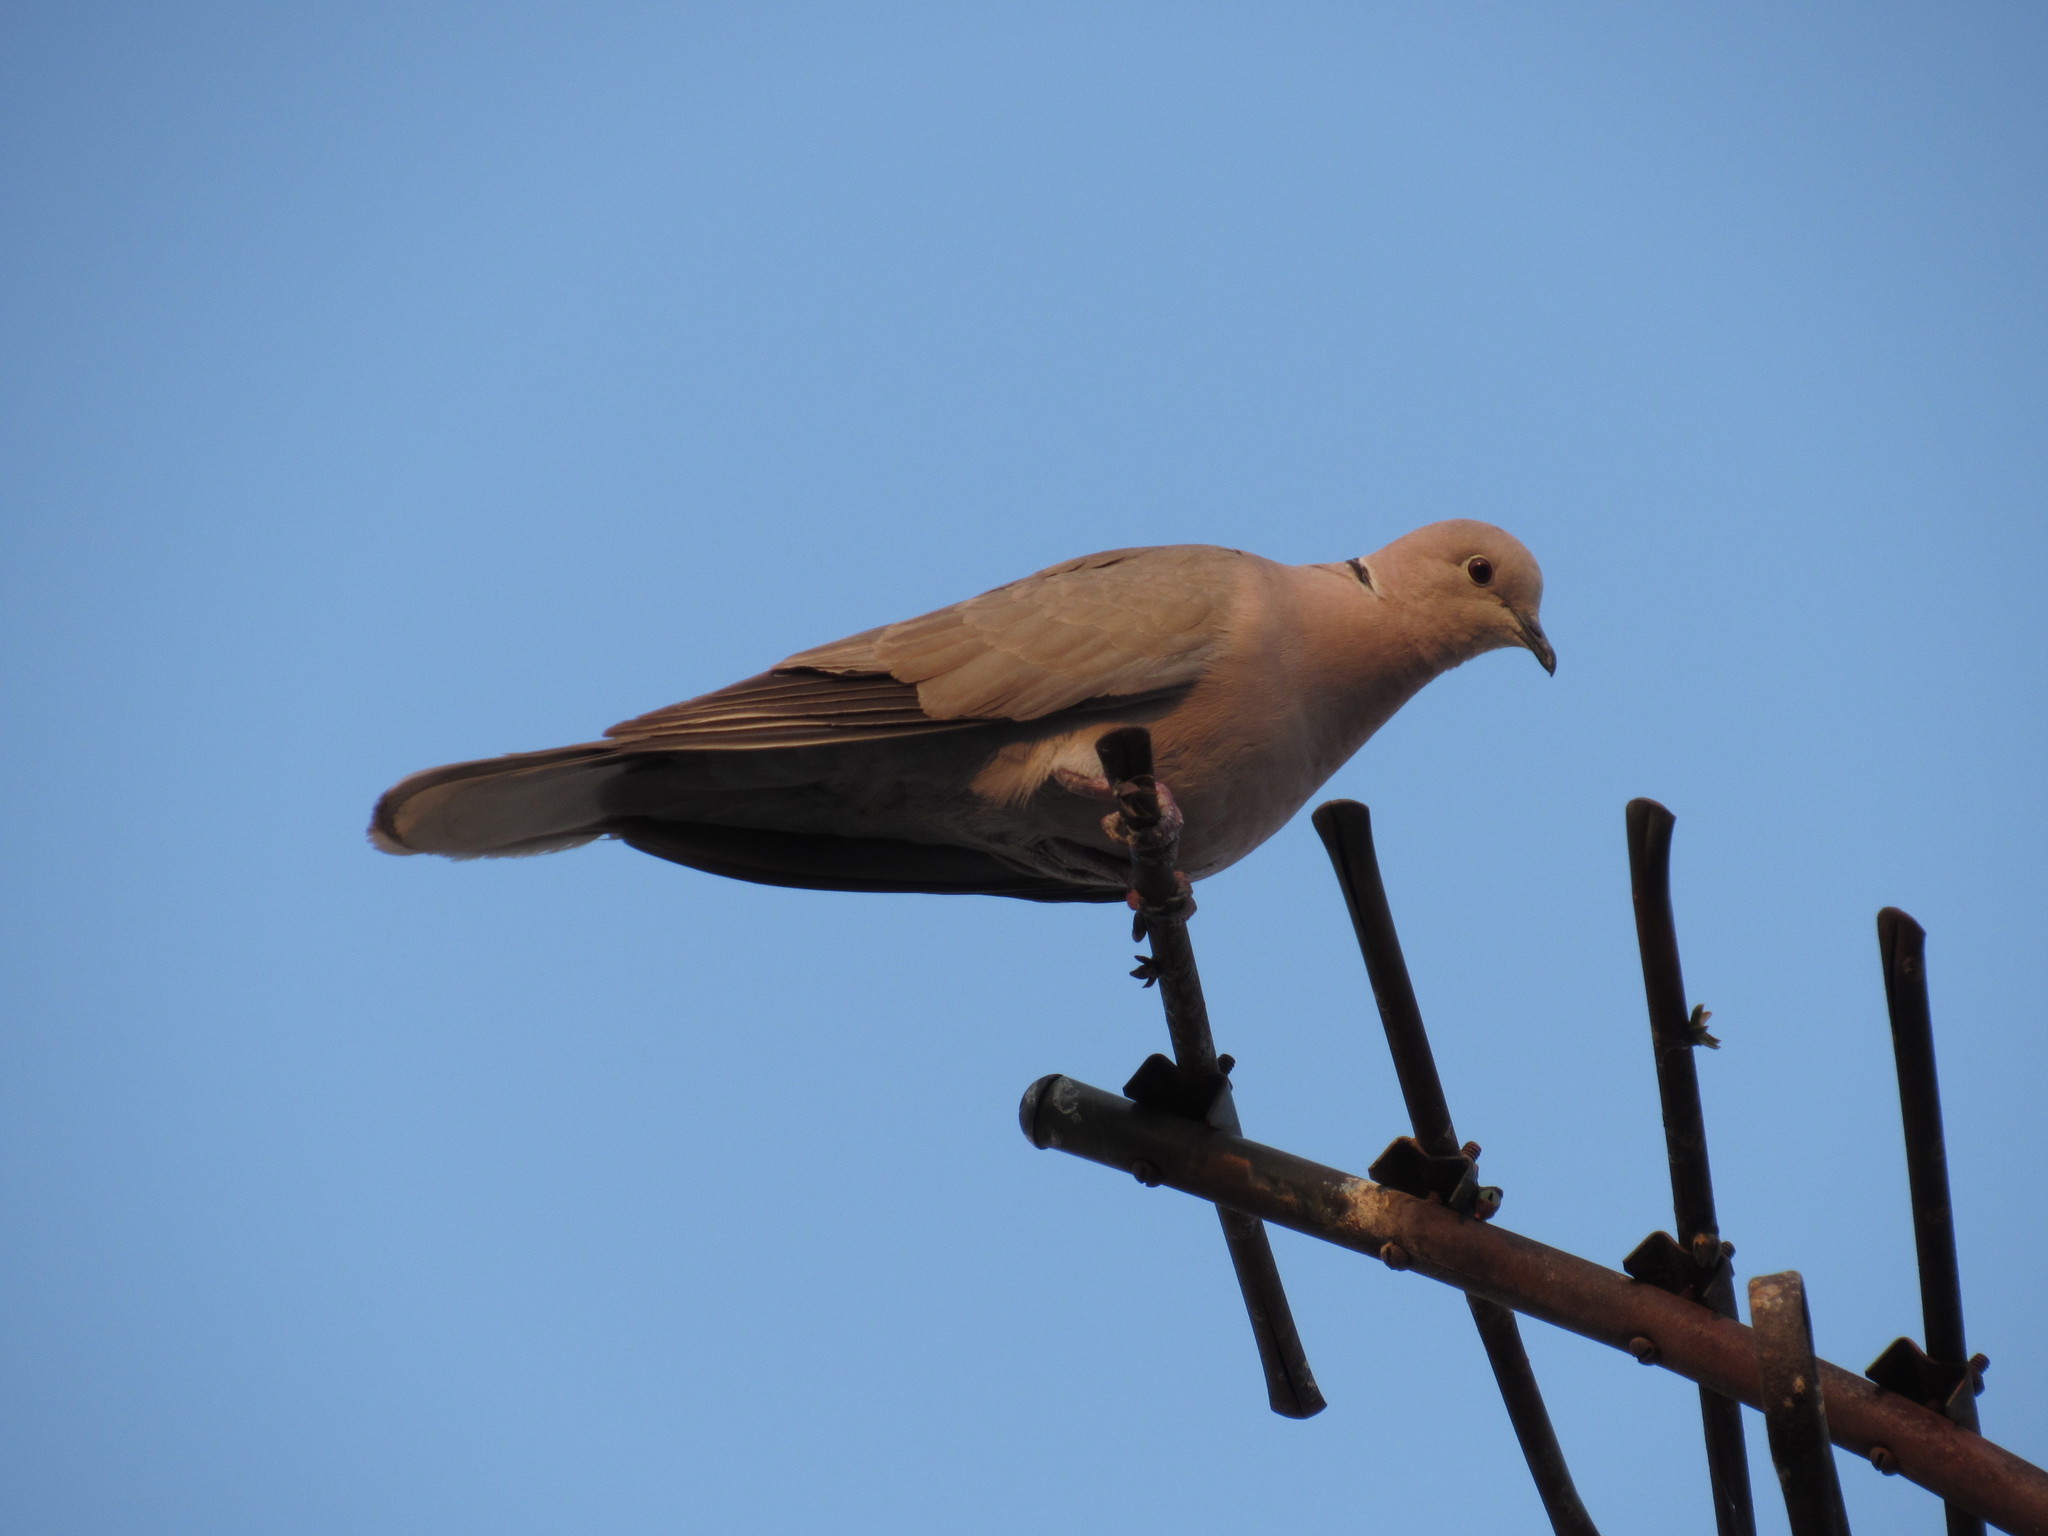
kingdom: Animalia
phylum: Chordata
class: Aves
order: Columbiformes
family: Columbidae
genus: Streptopelia
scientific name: Streptopelia decaocto
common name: Eurasian collared dove
